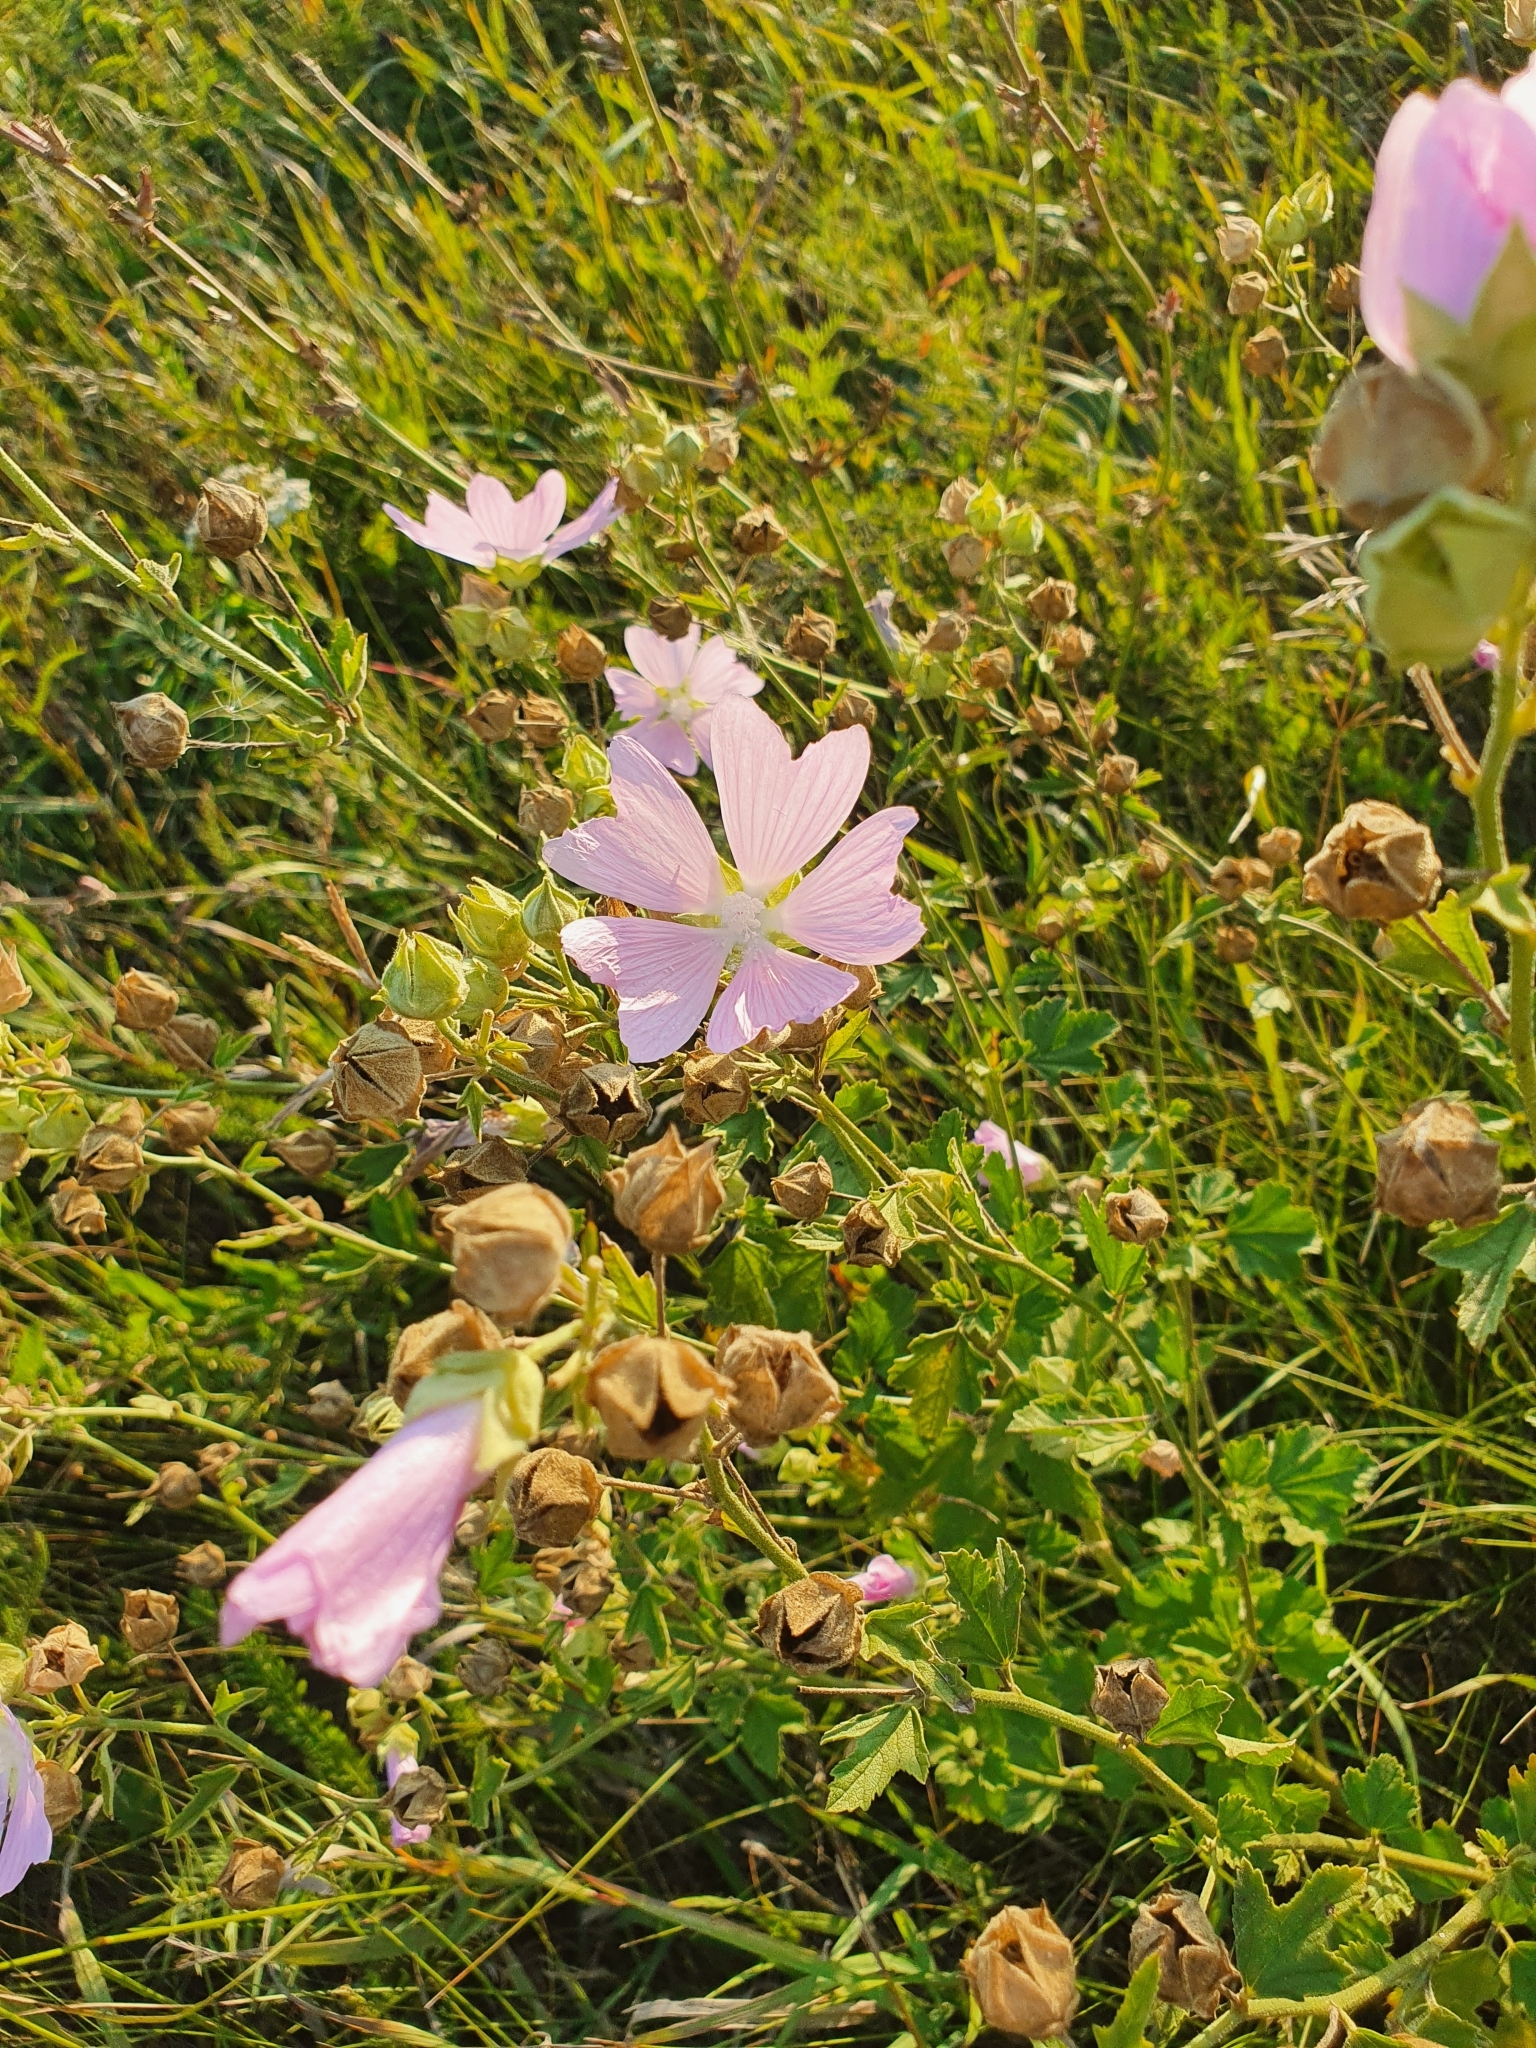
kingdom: Plantae
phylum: Tracheophyta
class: Magnoliopsida
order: Malvales
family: Malvaceae
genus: Malva
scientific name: Malva thuringiaca
